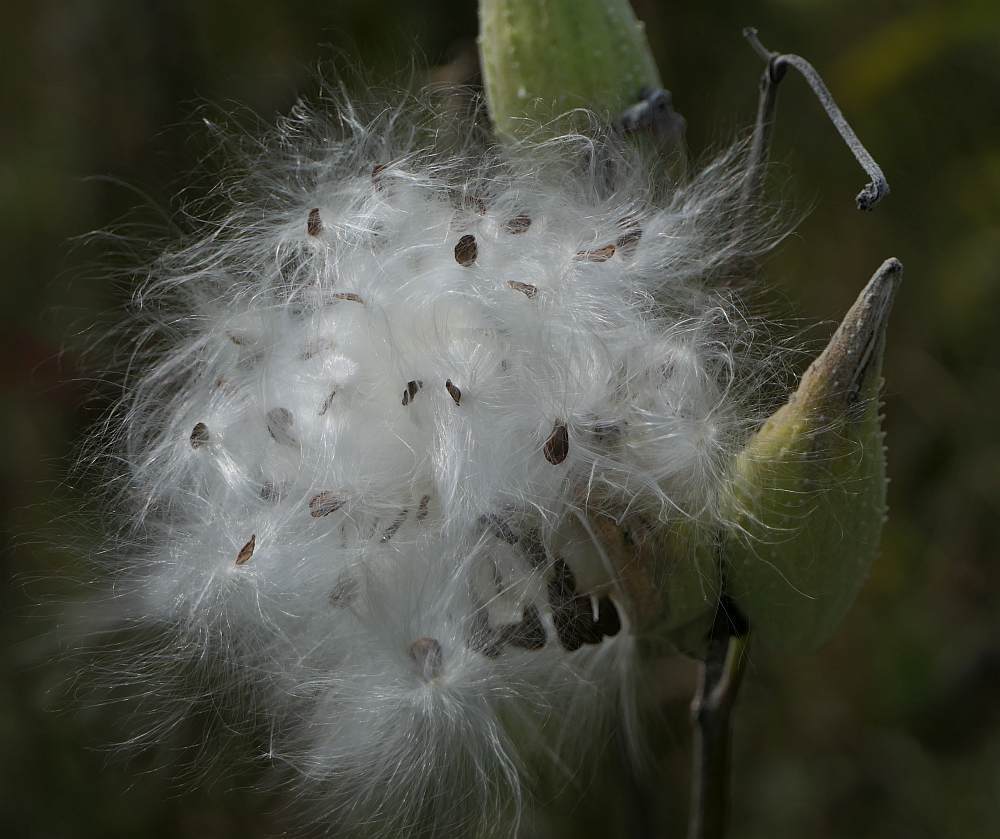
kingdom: Plantae
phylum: Tracheophyta
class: Magnoliopsida
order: Gentianales
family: Apocynaceae
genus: Asclepias
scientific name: Asclepias syriaca
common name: Common milkweed
